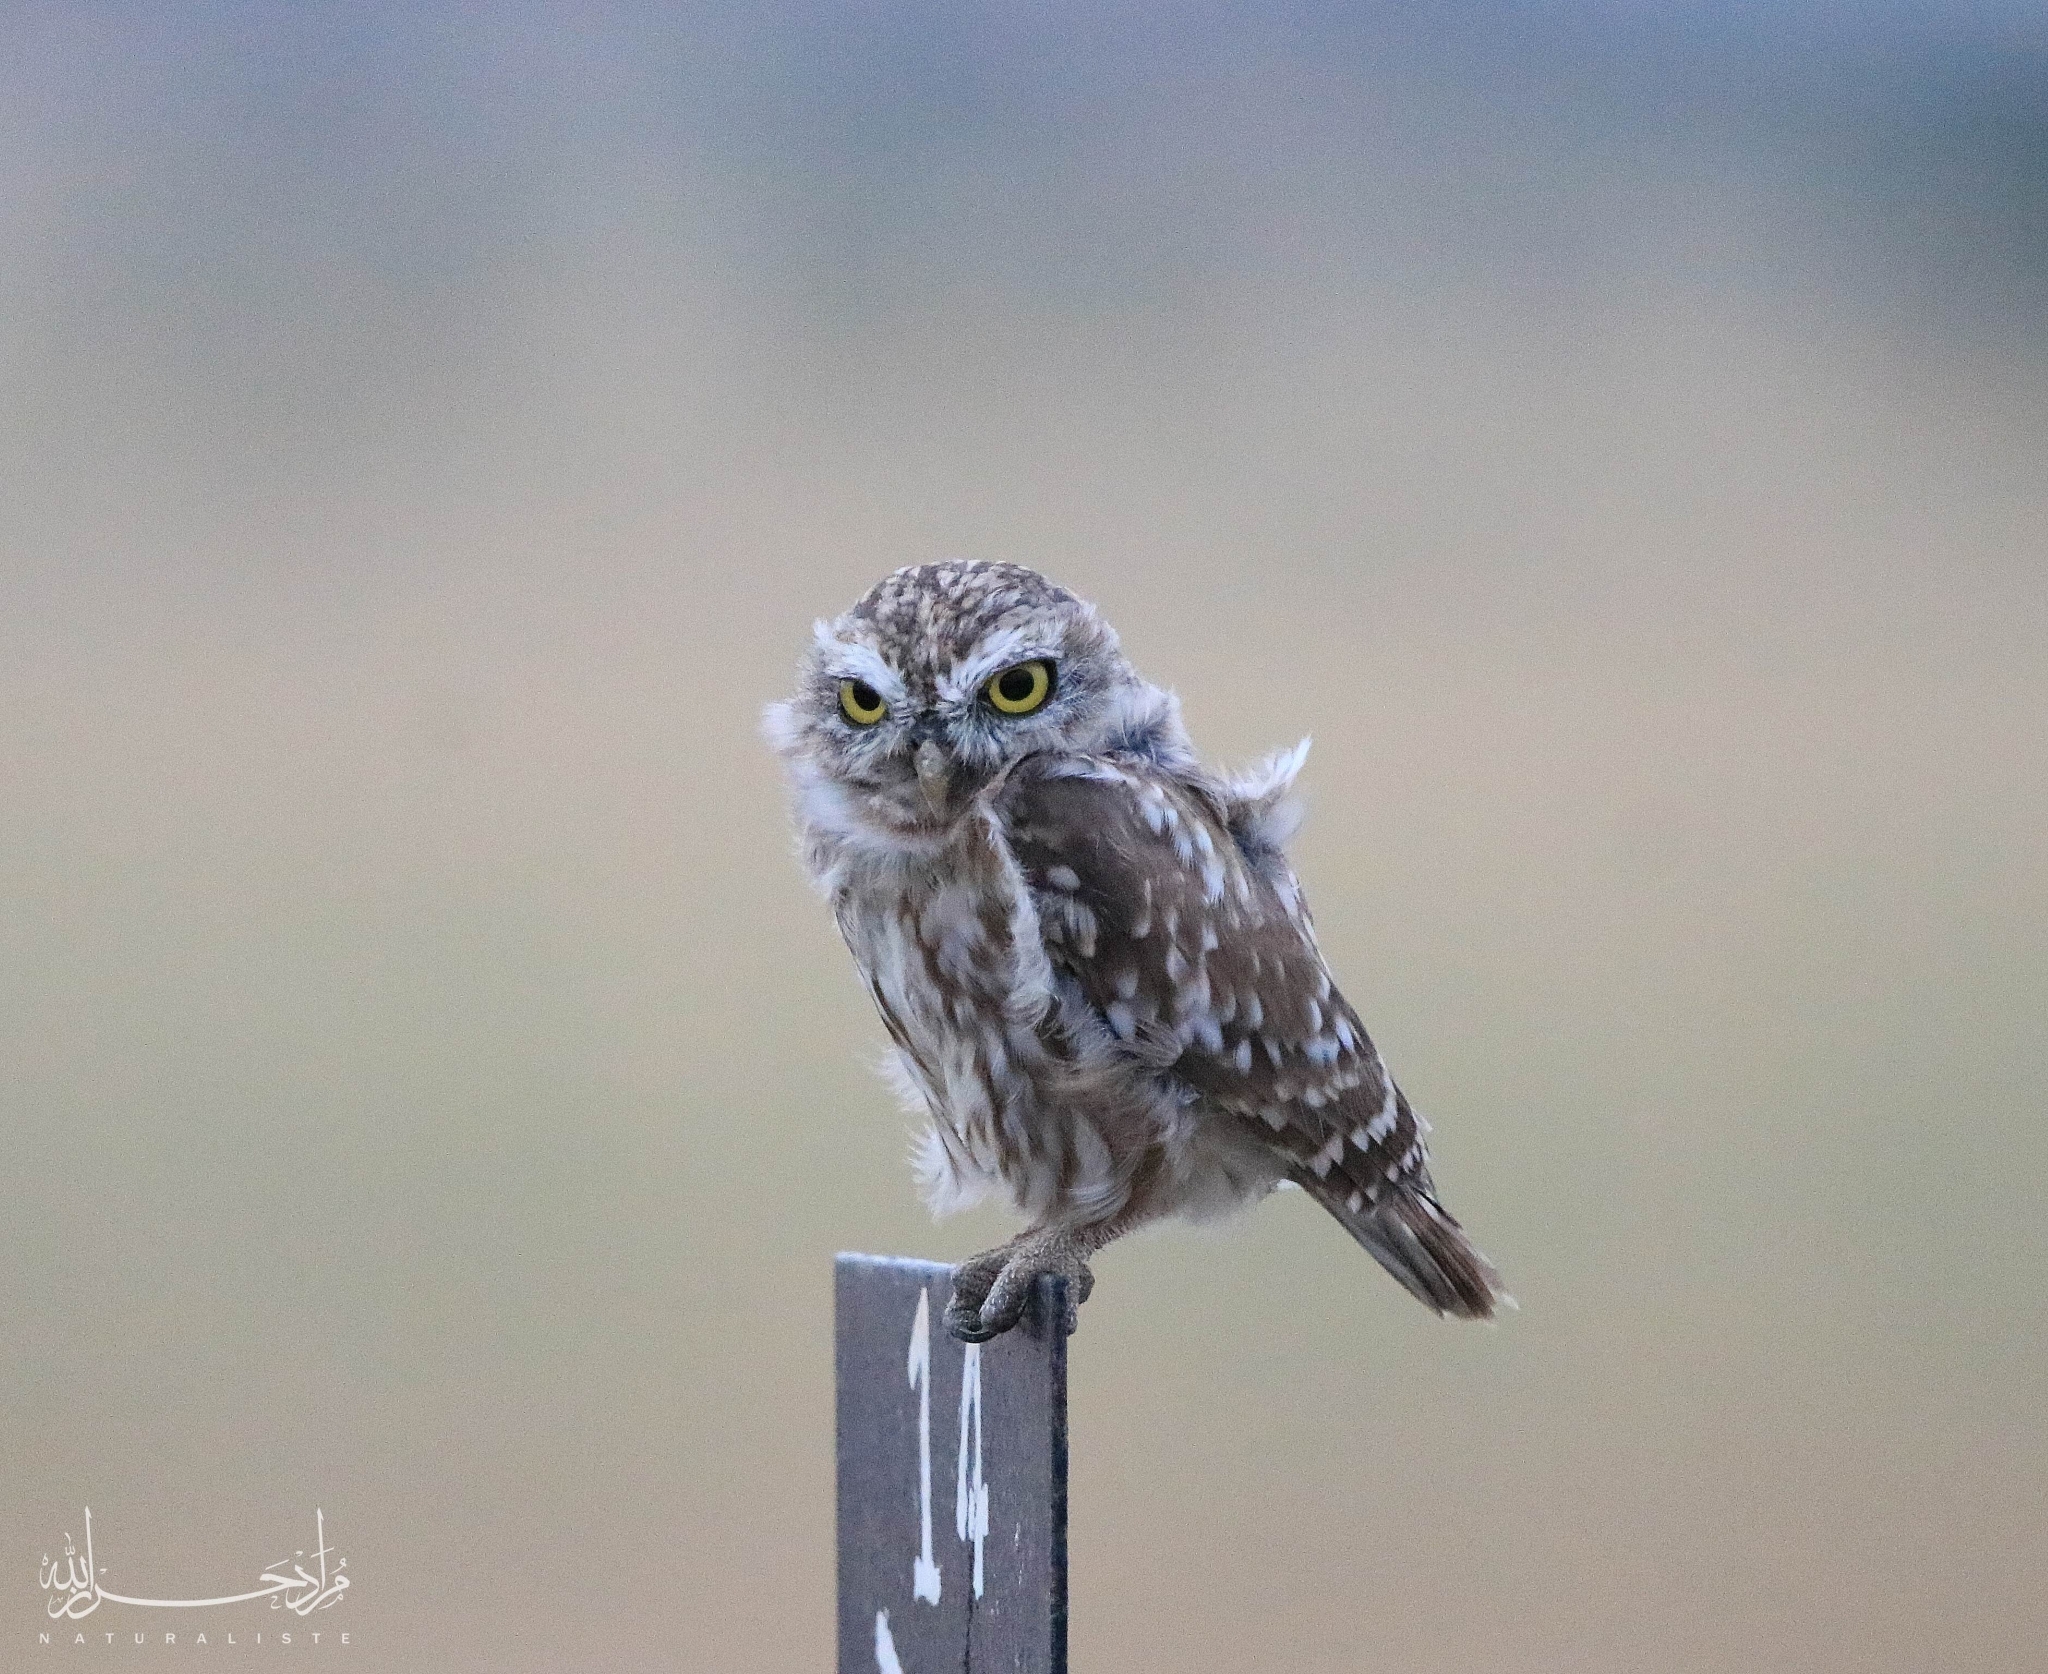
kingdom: Animalia
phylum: Chordata
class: Aves
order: Strigiformes
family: Strigidae
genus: Athene
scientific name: Athene noctua
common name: Little owl
